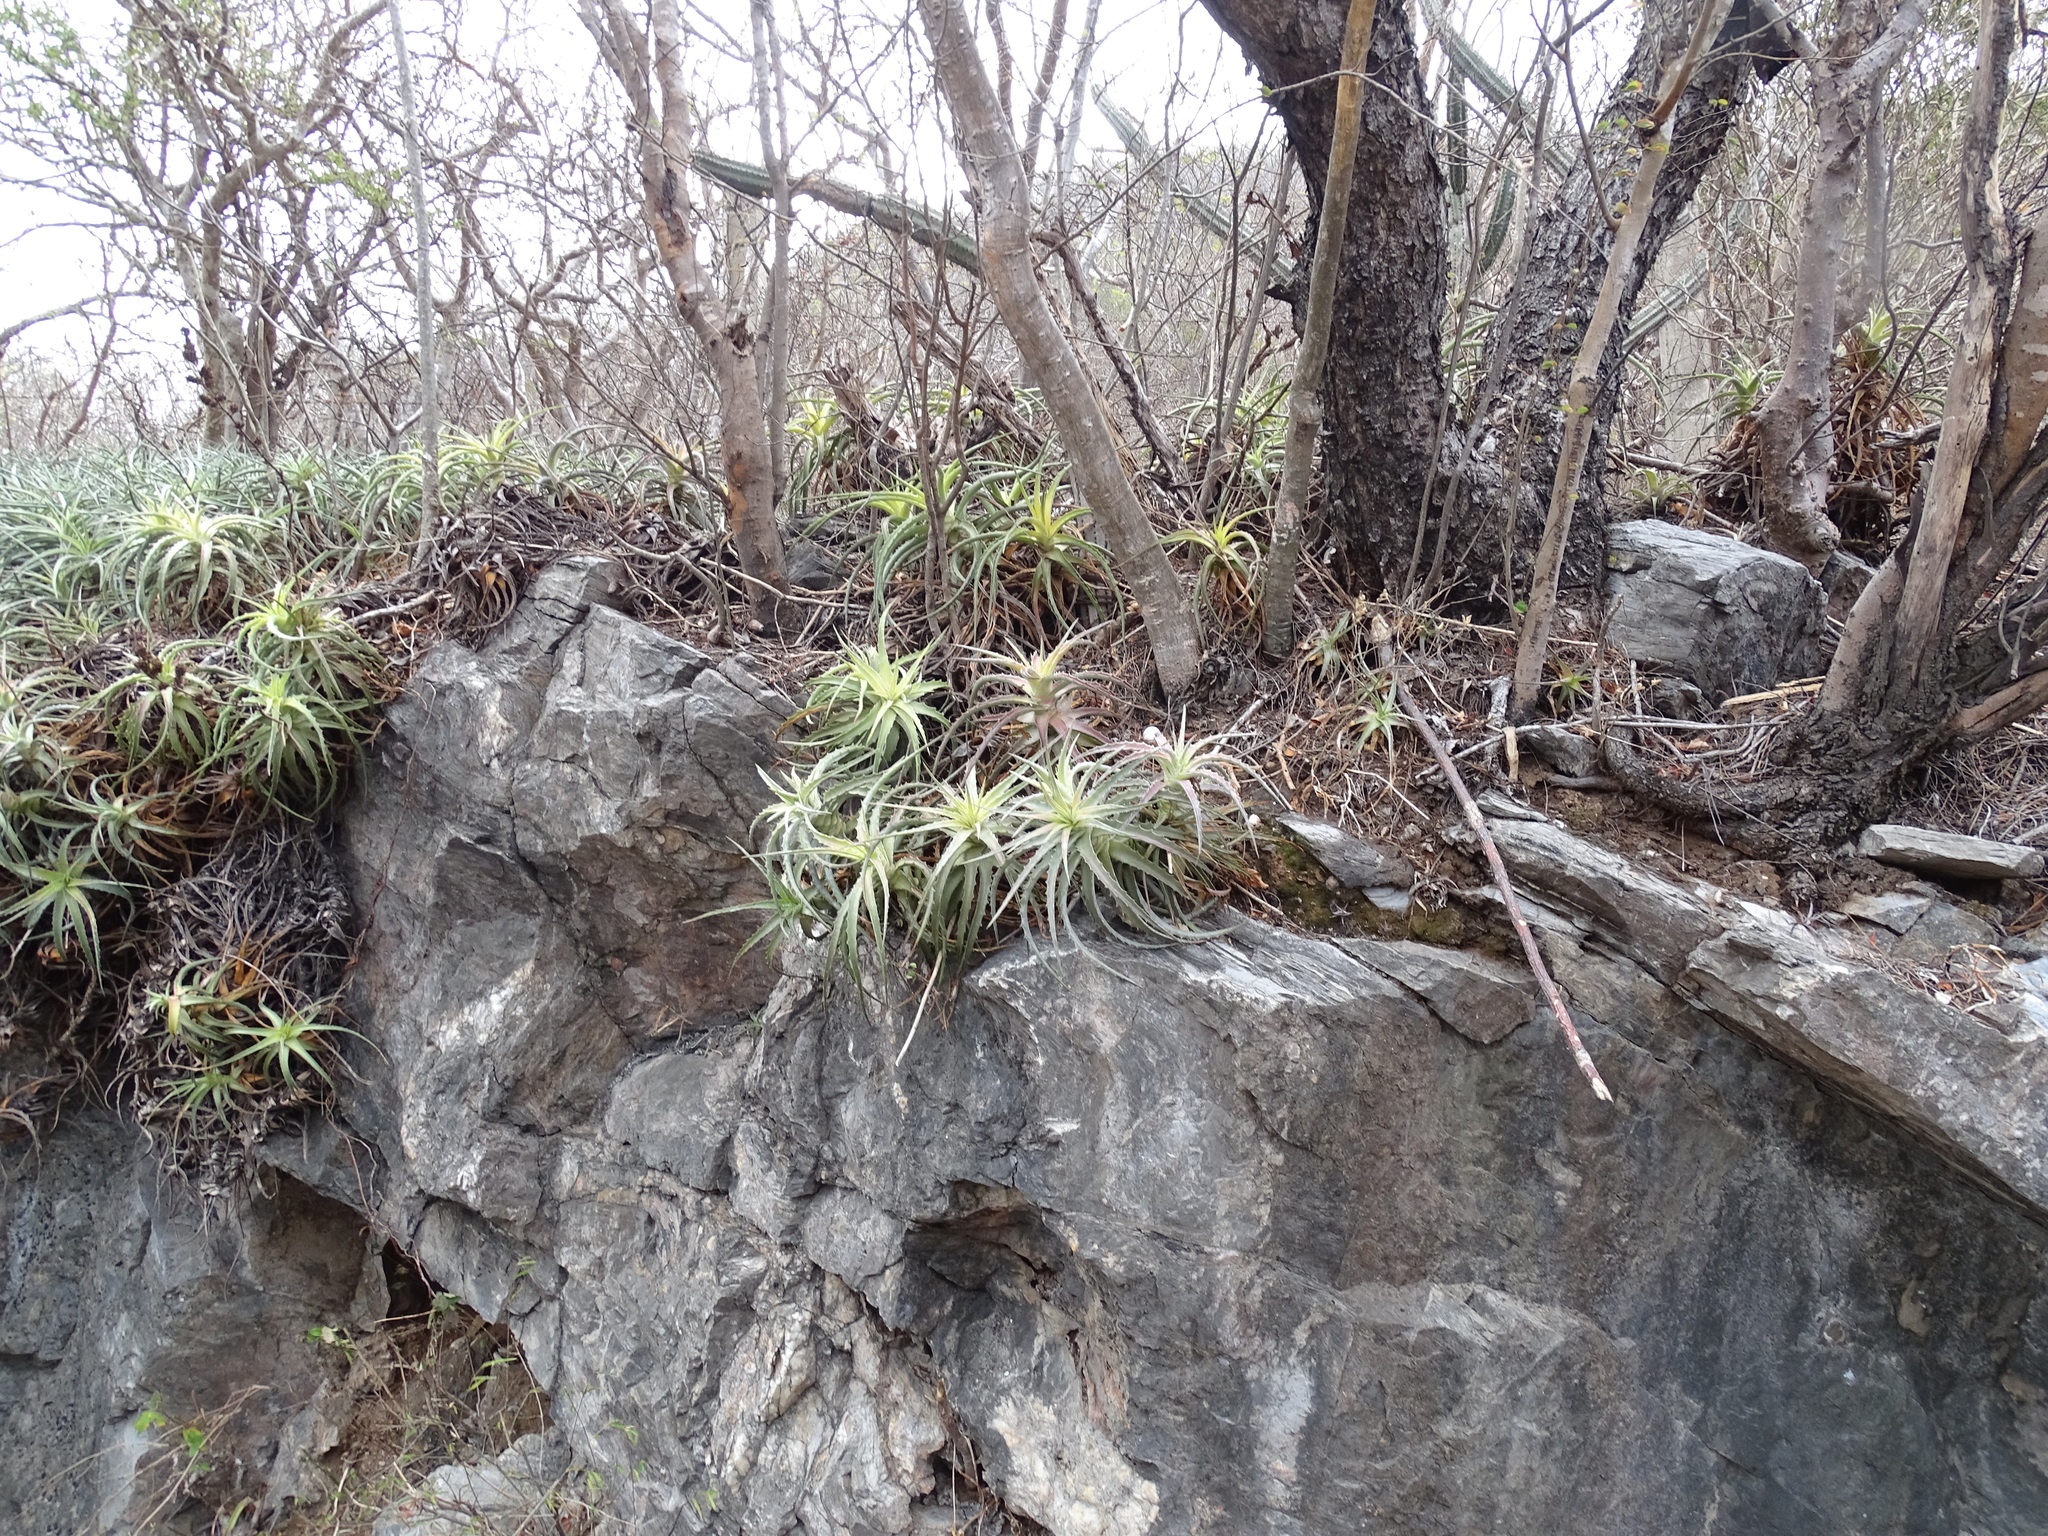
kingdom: Plantae
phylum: Tracheophyta
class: Liliopsida
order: Poales
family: Bromeliaceae
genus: Hechtia
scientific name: Hechtia isthmusiana
